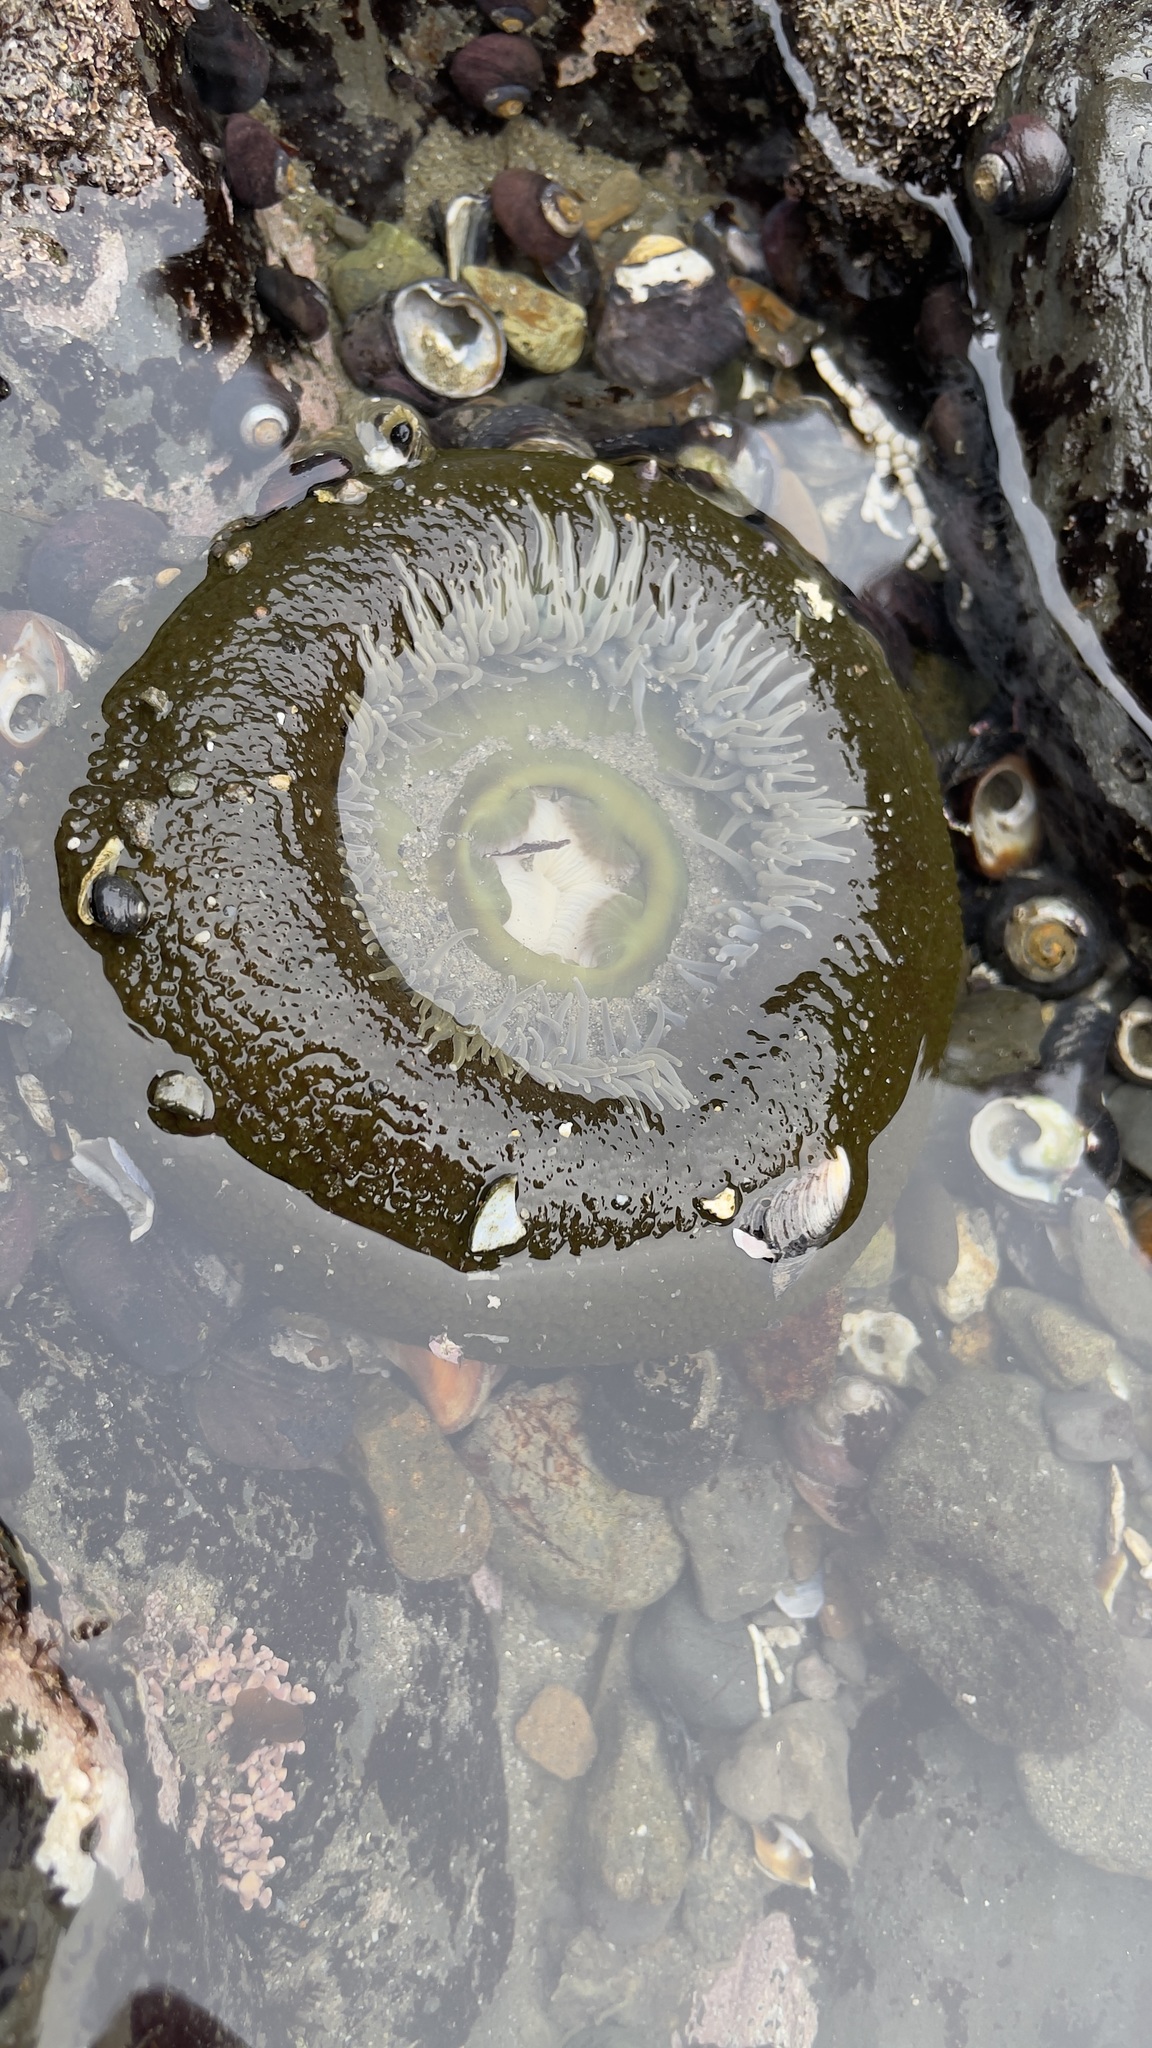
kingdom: Animalia
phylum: Cnidaria
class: Anthozoa
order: Actiniaria
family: Actiniidae
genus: Anthopleura
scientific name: Anthopleura xanthogrammica
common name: Giant green anemone
